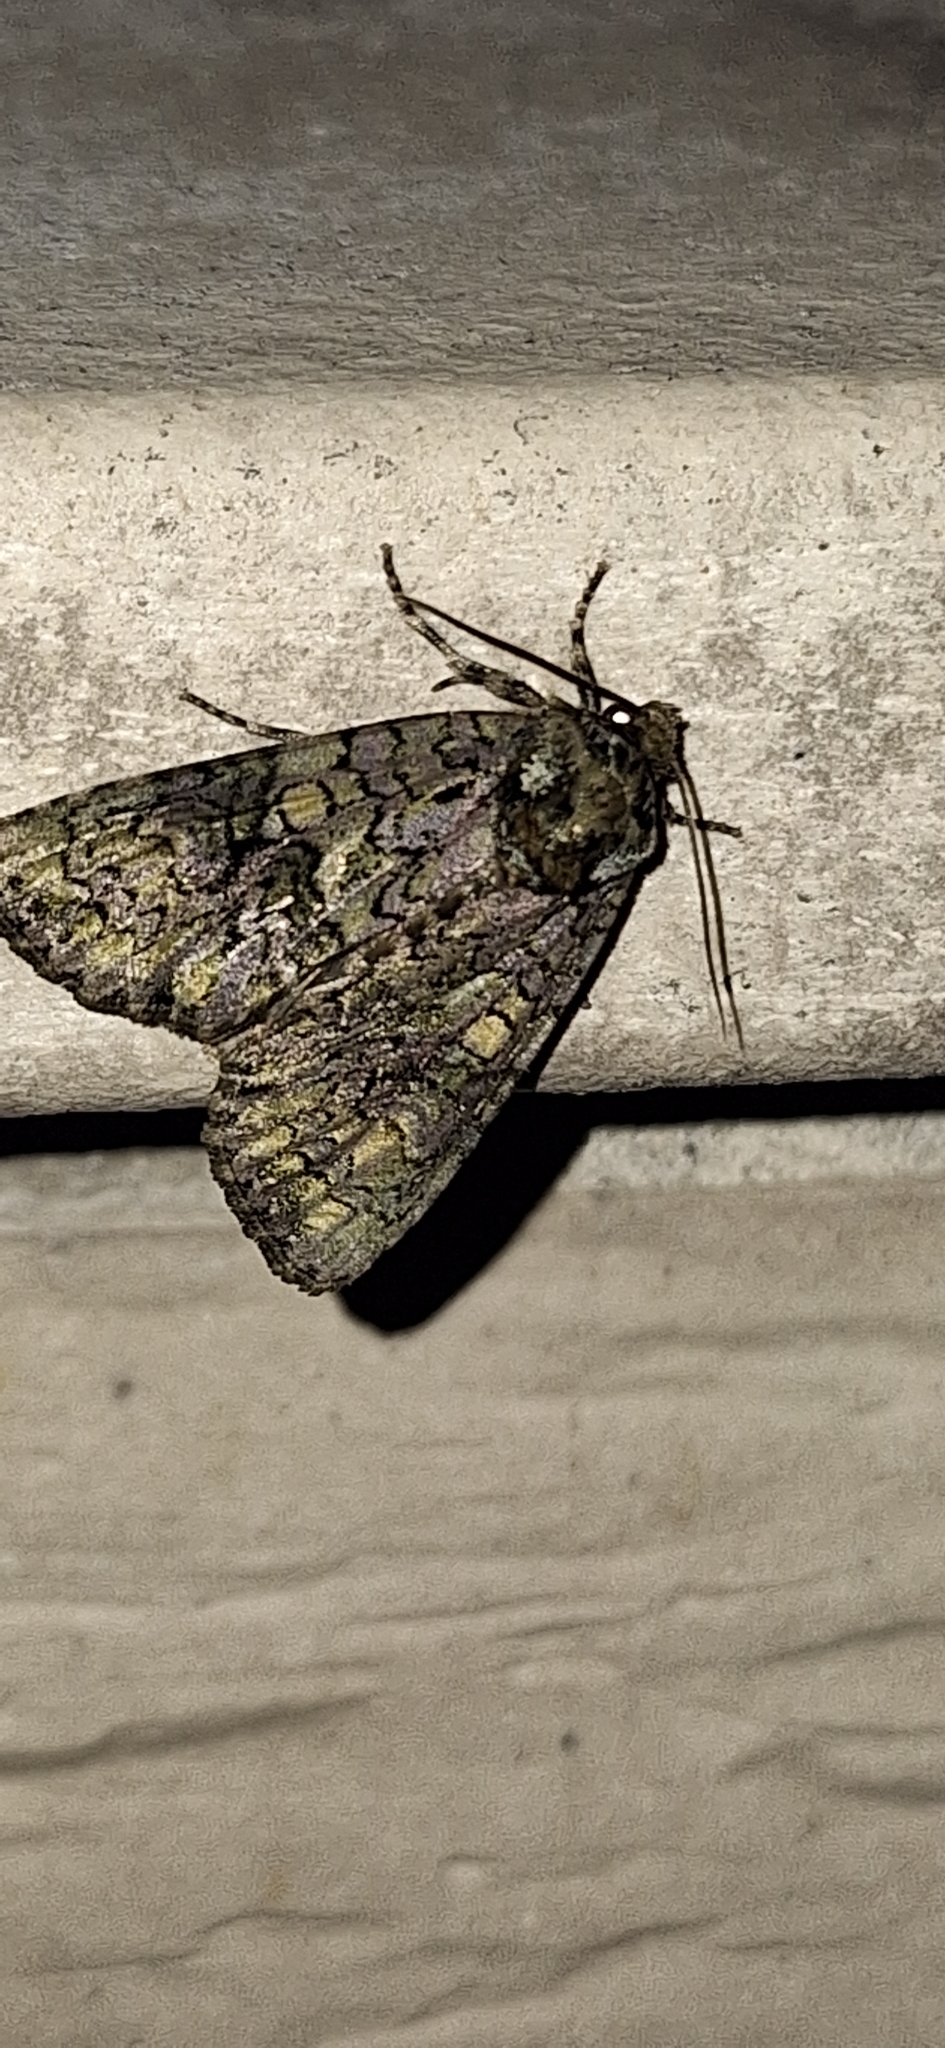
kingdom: Animalia
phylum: Arthropoda
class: Insecta
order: Lepidoptera
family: Noctuidae
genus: Craniophora
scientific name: Craniophora ligustri
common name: Coronet
